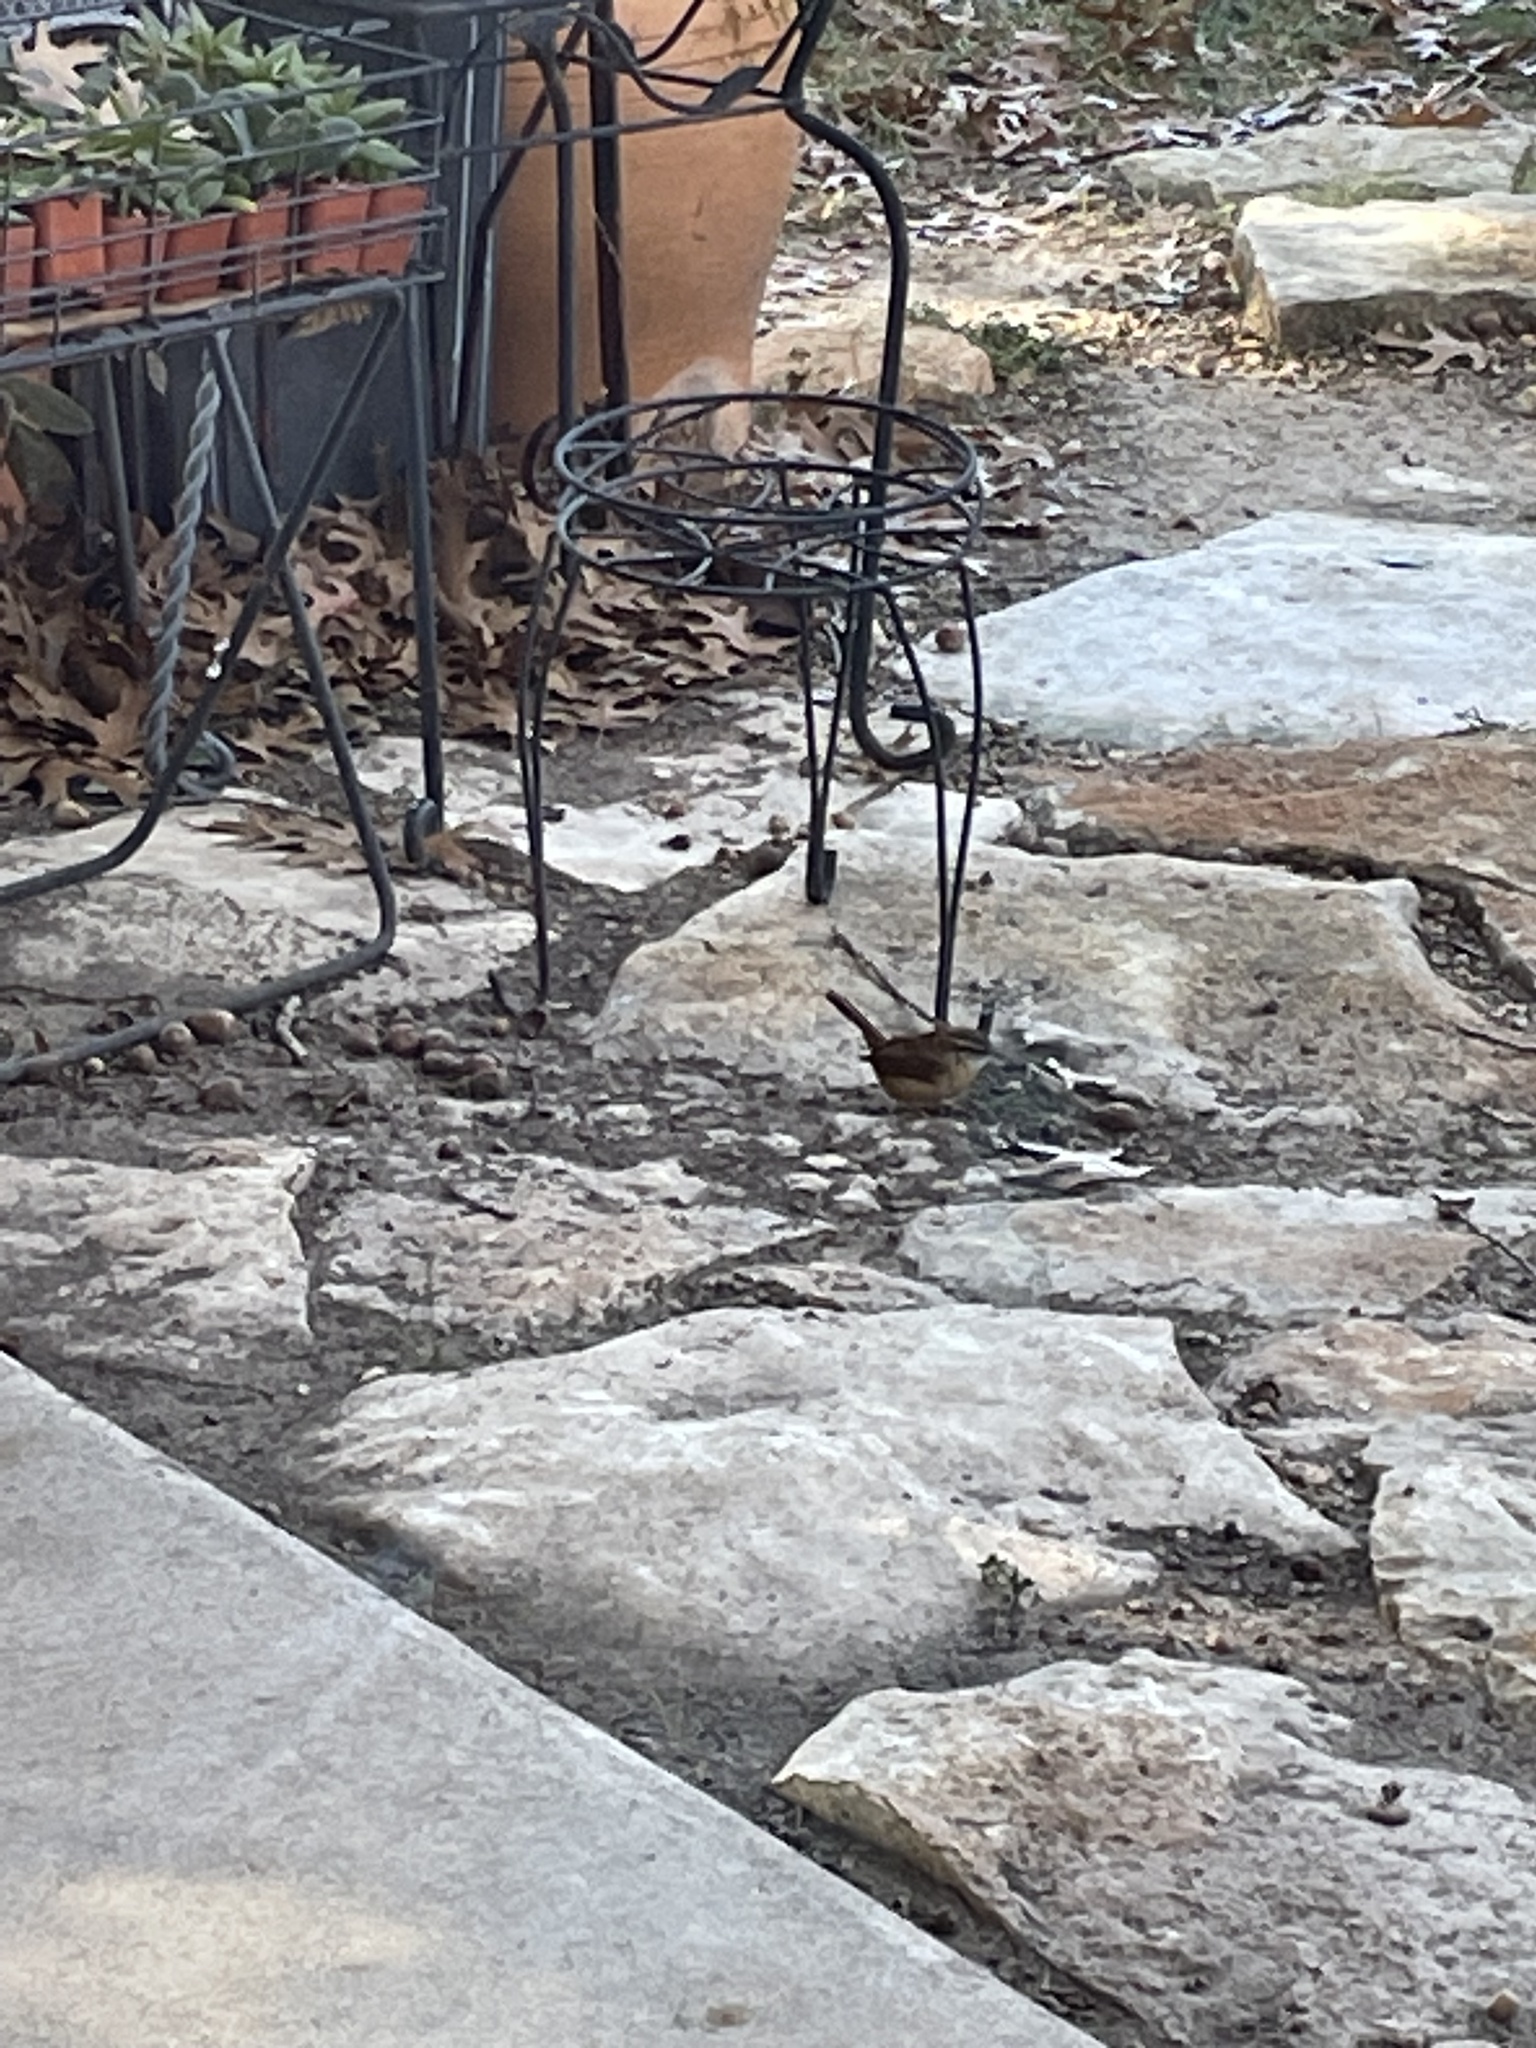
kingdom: Animalia
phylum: Chordata
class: Aves
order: Passeriformes
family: Troglodytidae
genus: Thryothorus
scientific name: Thryothorus ludovicianus
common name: Carolina wren
